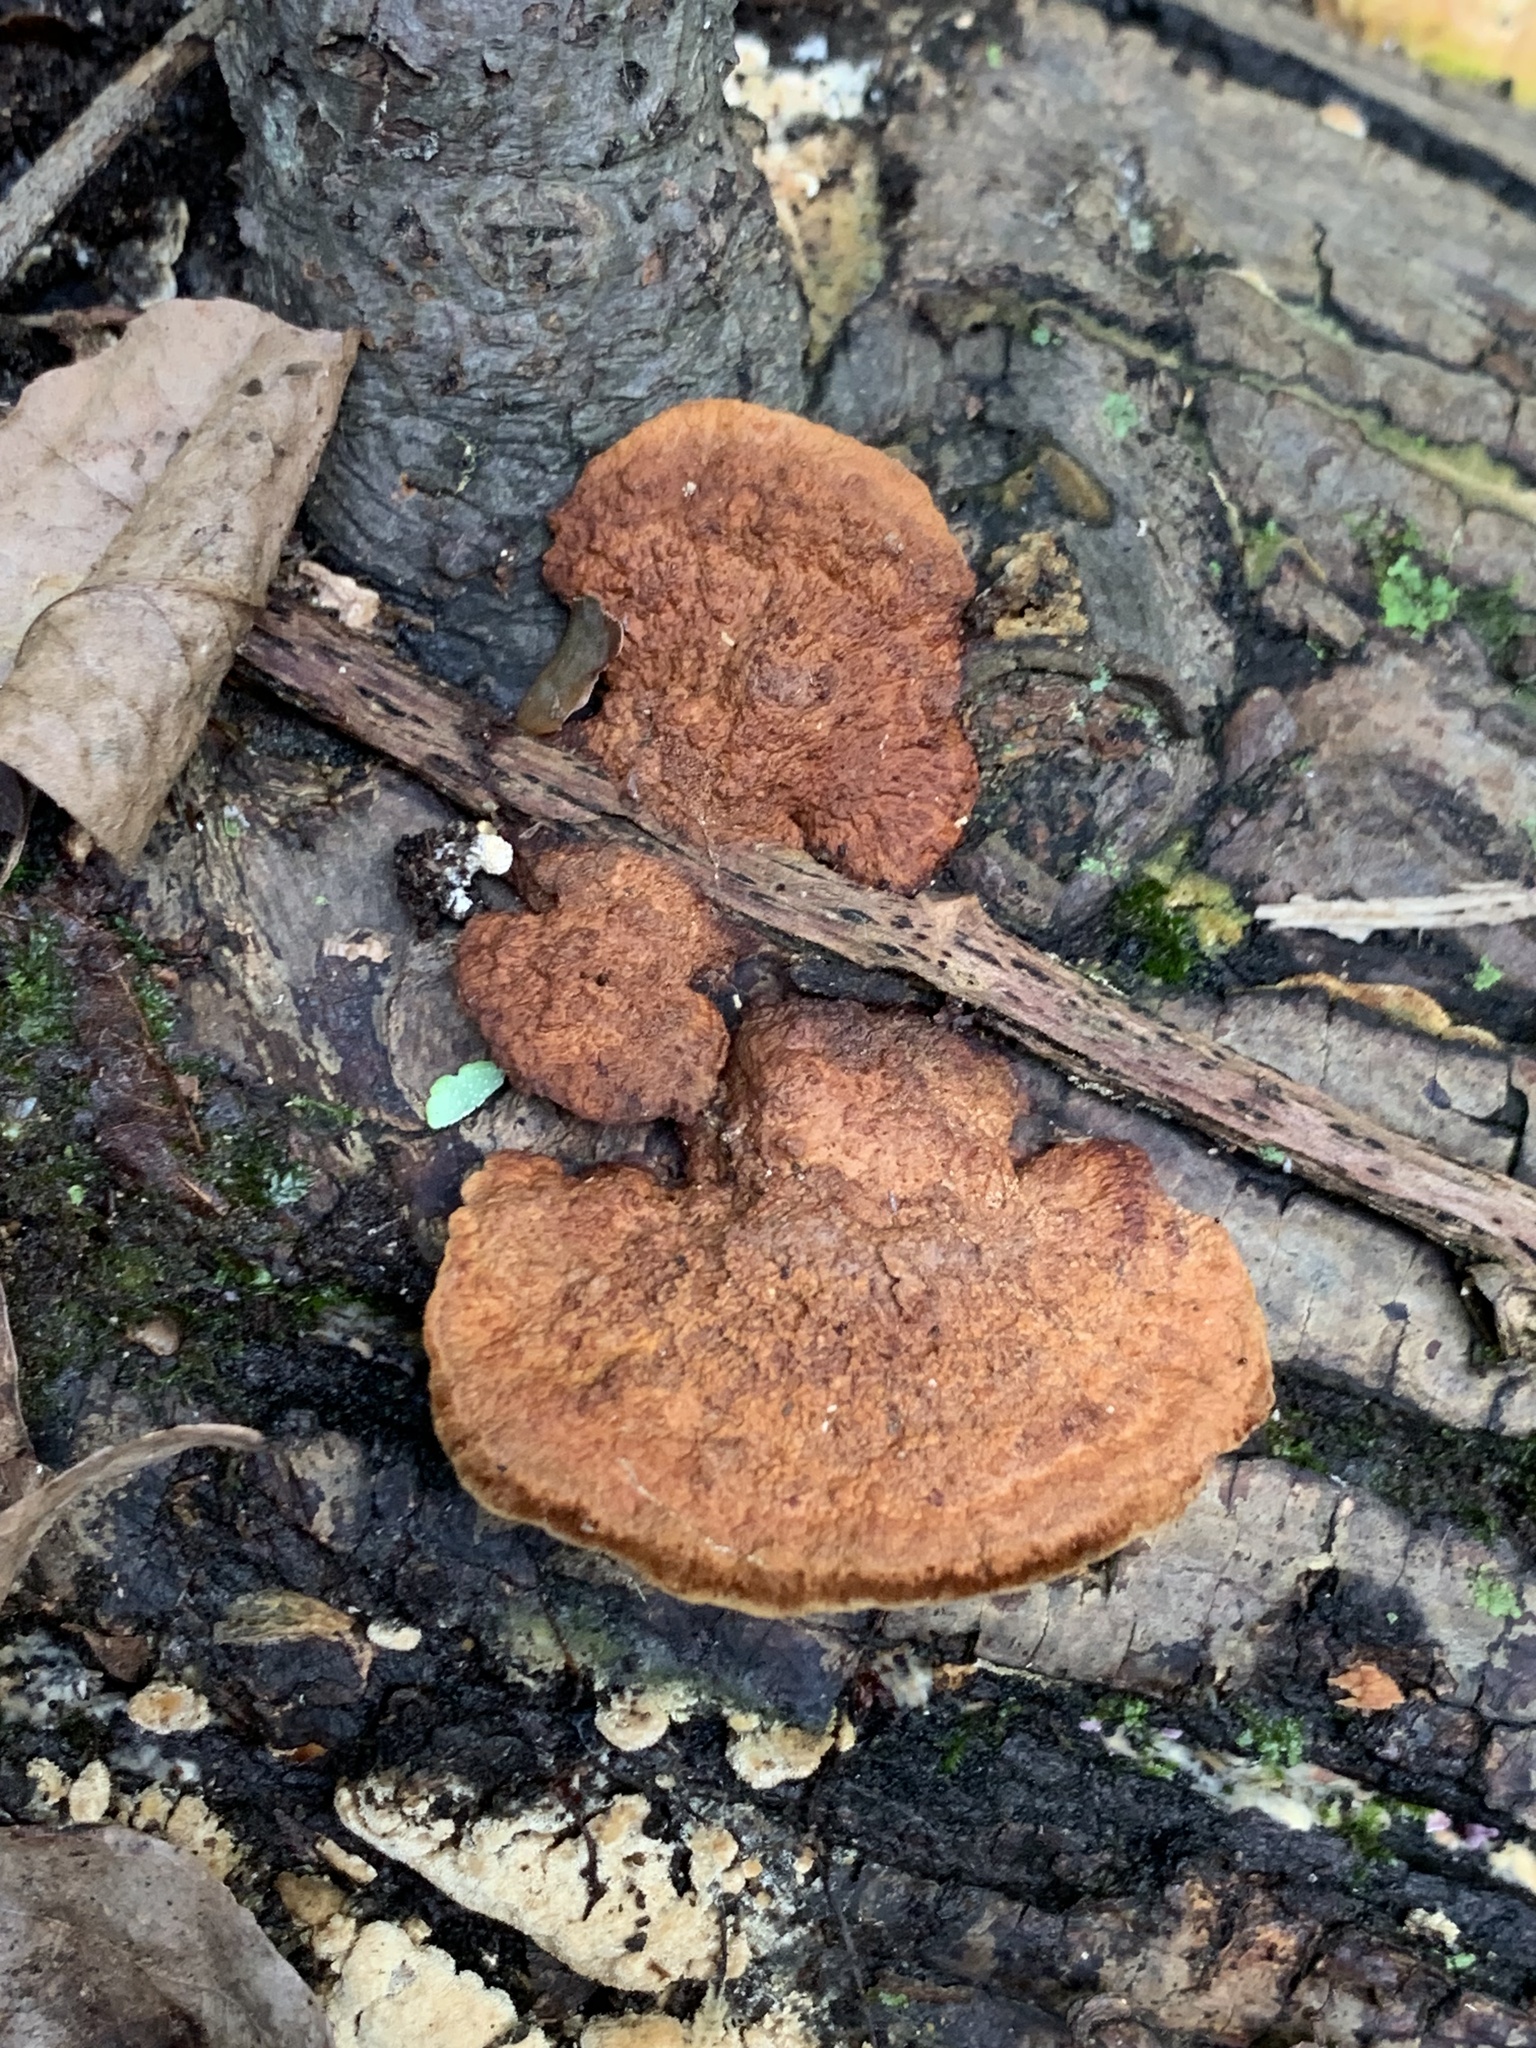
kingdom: Fungi
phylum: Basidiomycota
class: Agaricomycetes
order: Hymenochaetales
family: Hymenochaetaceae
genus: Phellinus
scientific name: Phellinus gilvus
